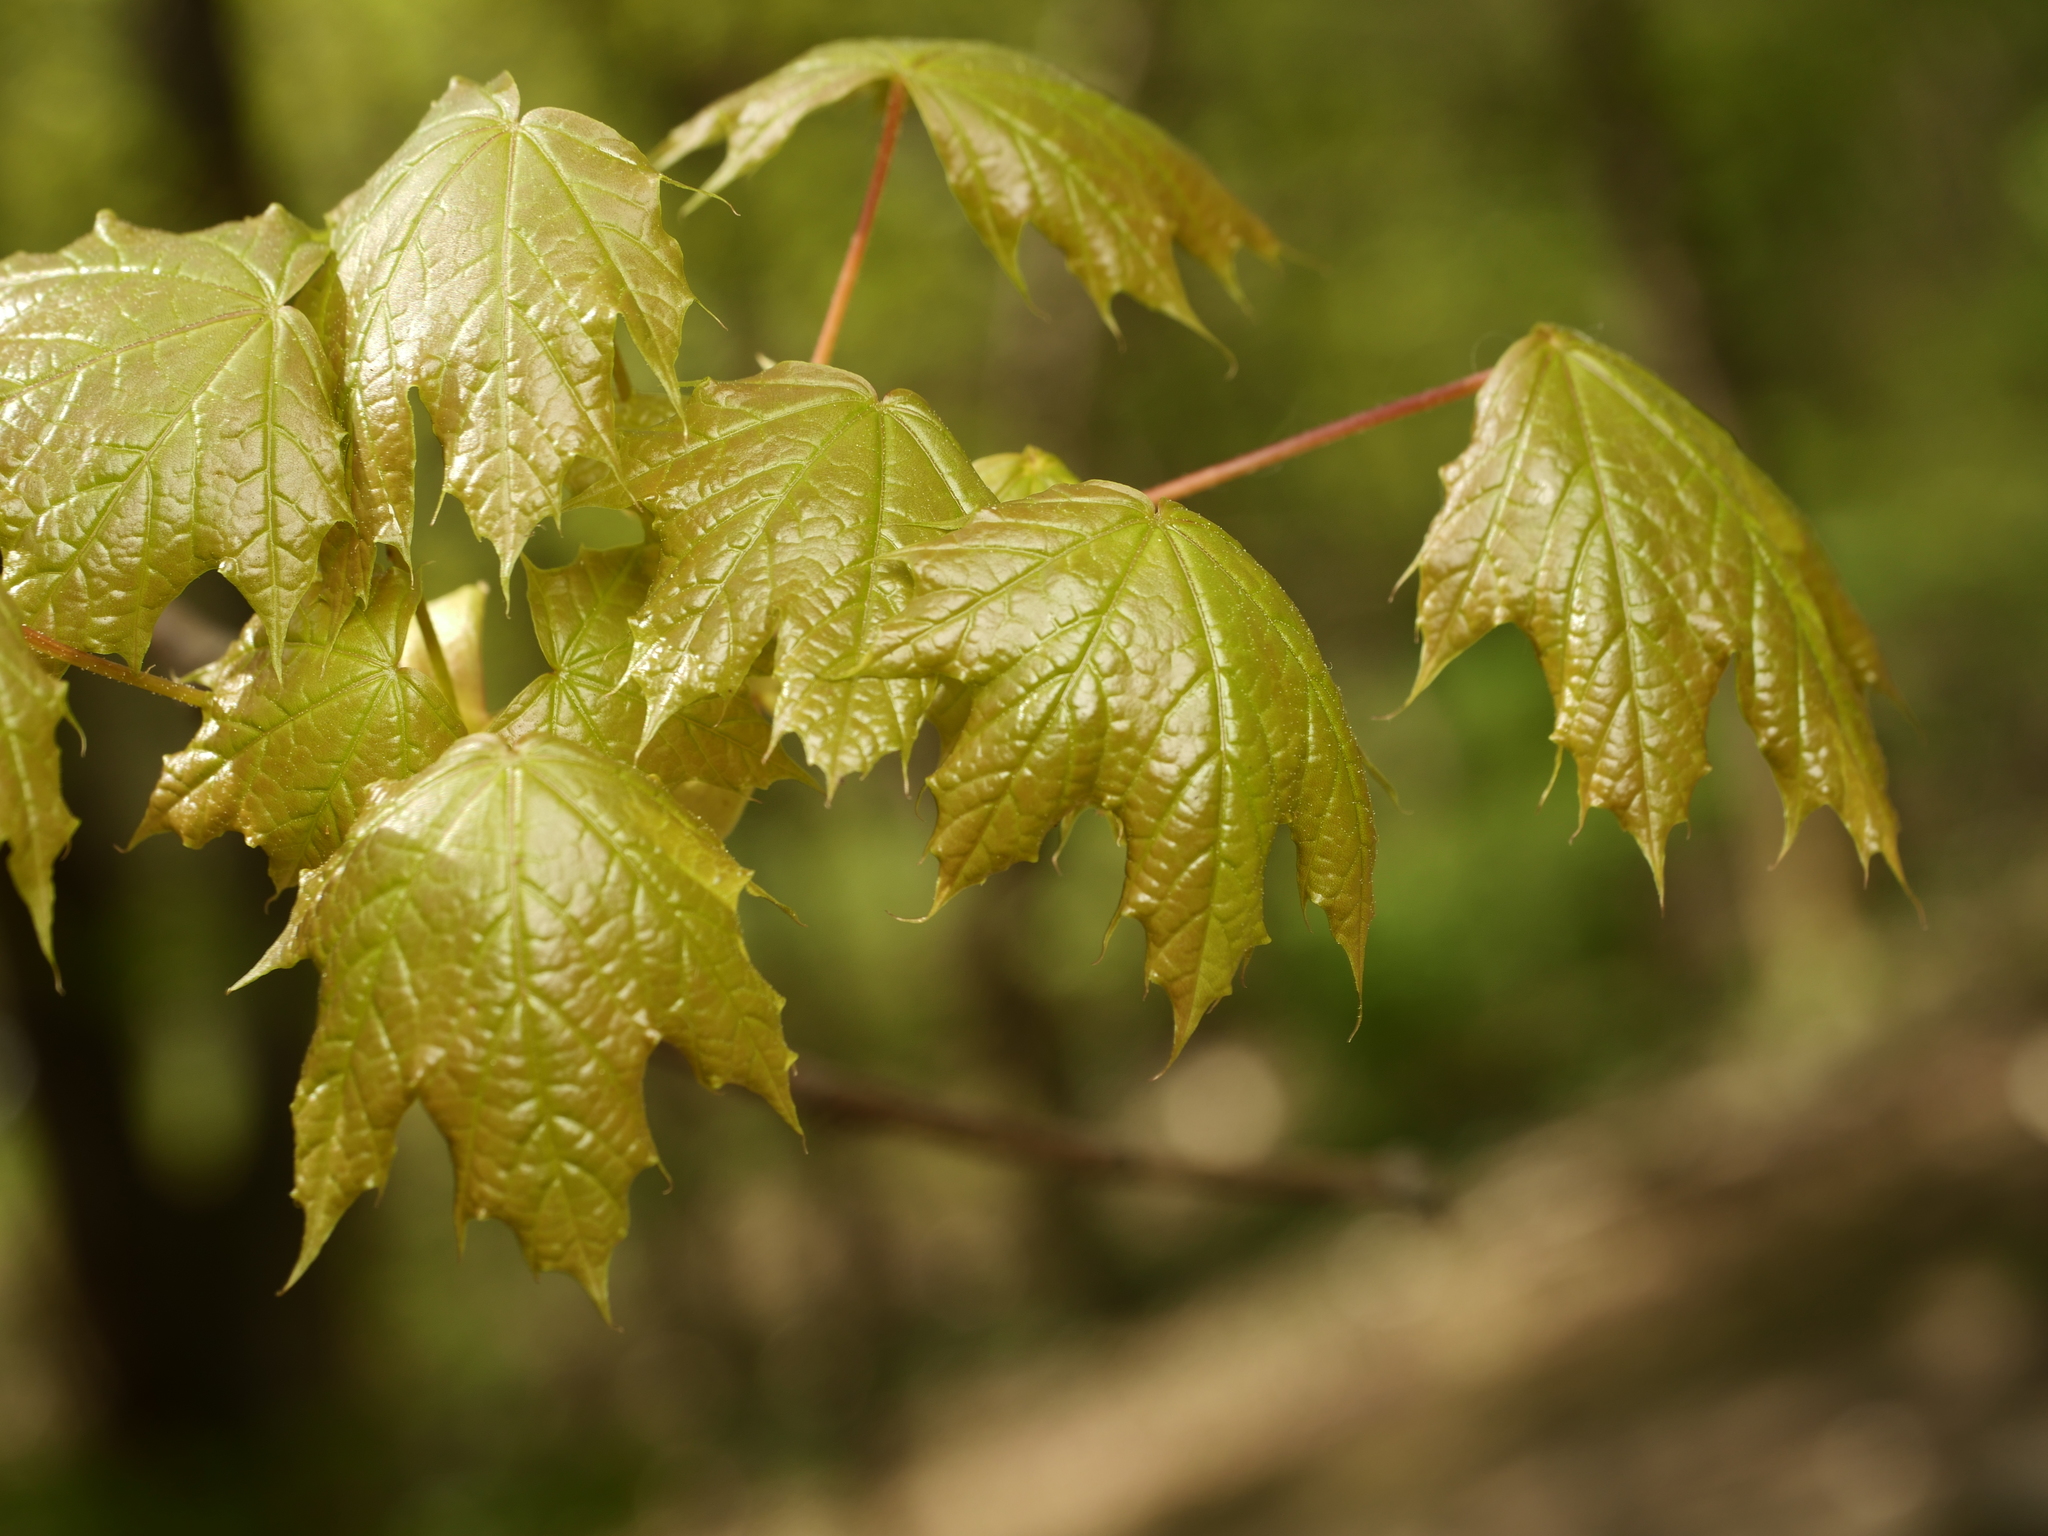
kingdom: Plantae
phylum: Tracheophyta
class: Magnoliopsida
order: Sapindales
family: Sapindaceae
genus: Acer
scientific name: Acer platanoides
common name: Norway maple
